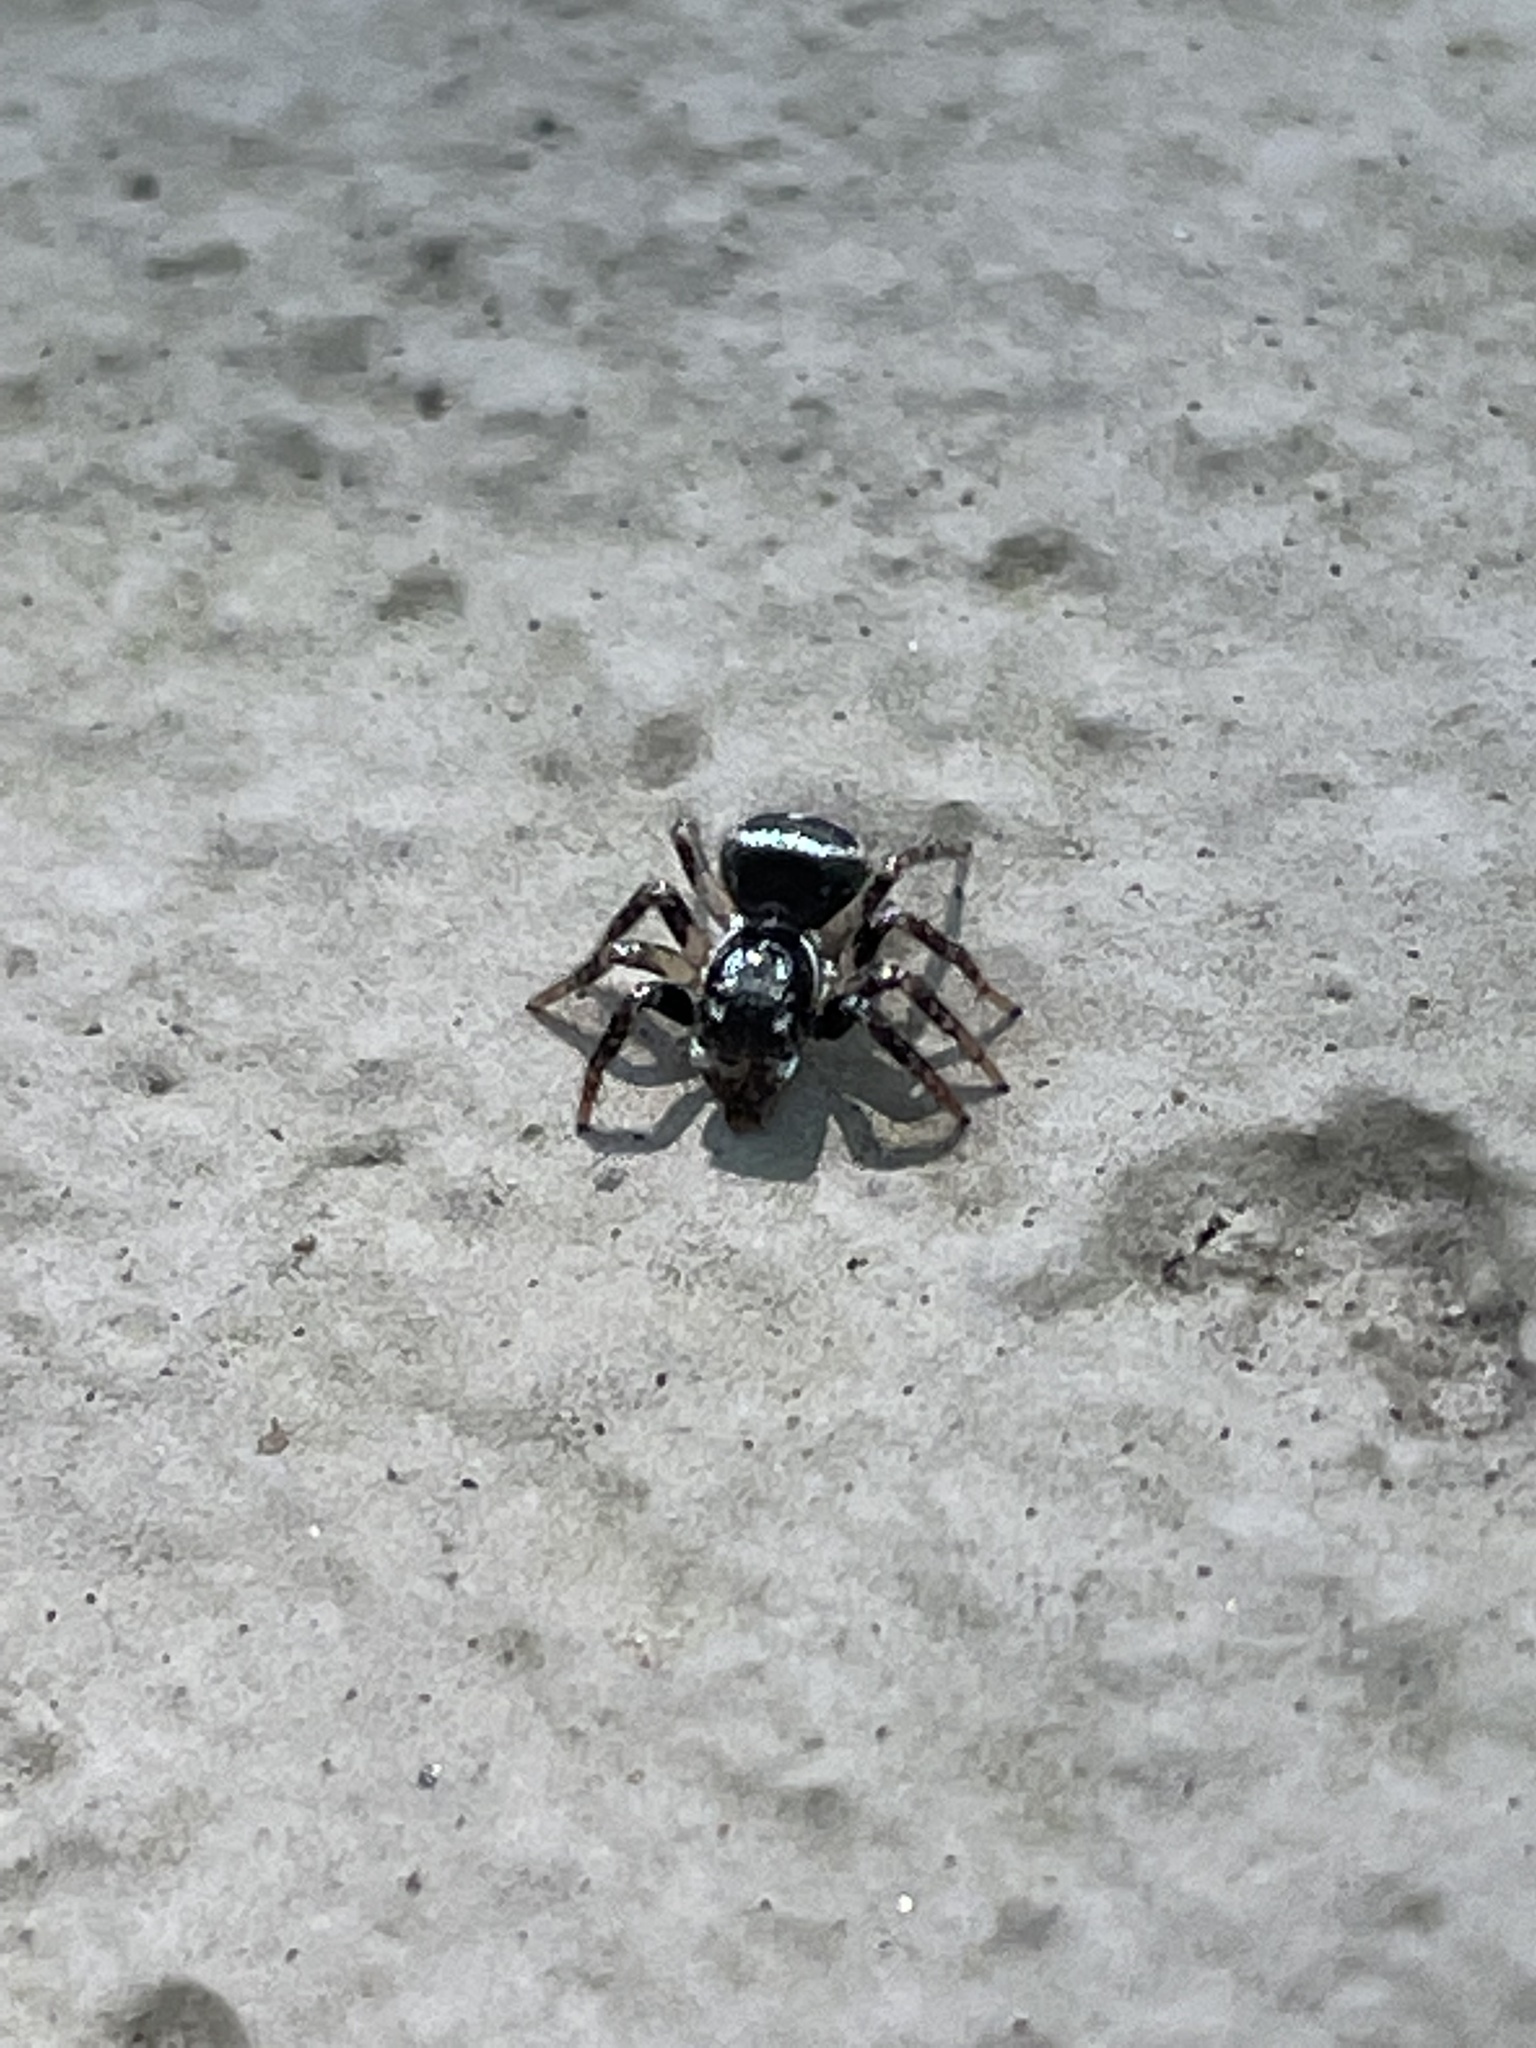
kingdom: Animalia
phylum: Arthropoda
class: Arachnida
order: Araneae
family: Salticidae
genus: Anasaitis
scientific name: Anasaitis canosa
